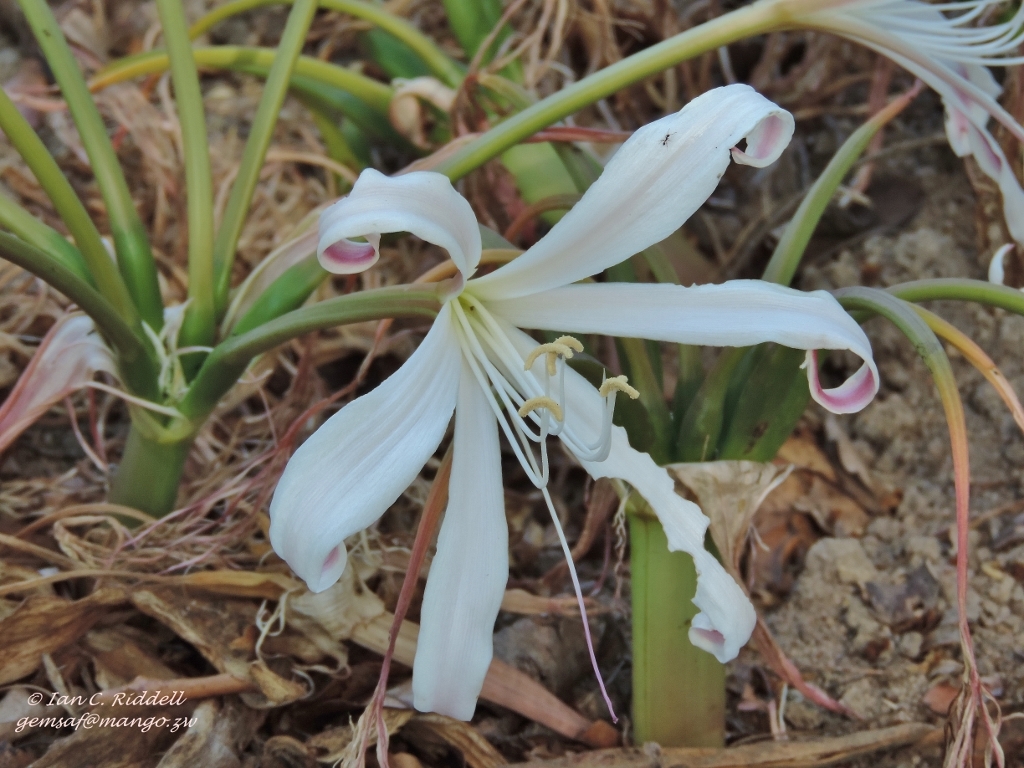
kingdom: Plantae
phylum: Tracheophyta
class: Liliopsida
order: Asparagales
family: Amaryllidaceae
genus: Crinum
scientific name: Crinum crassicaule
